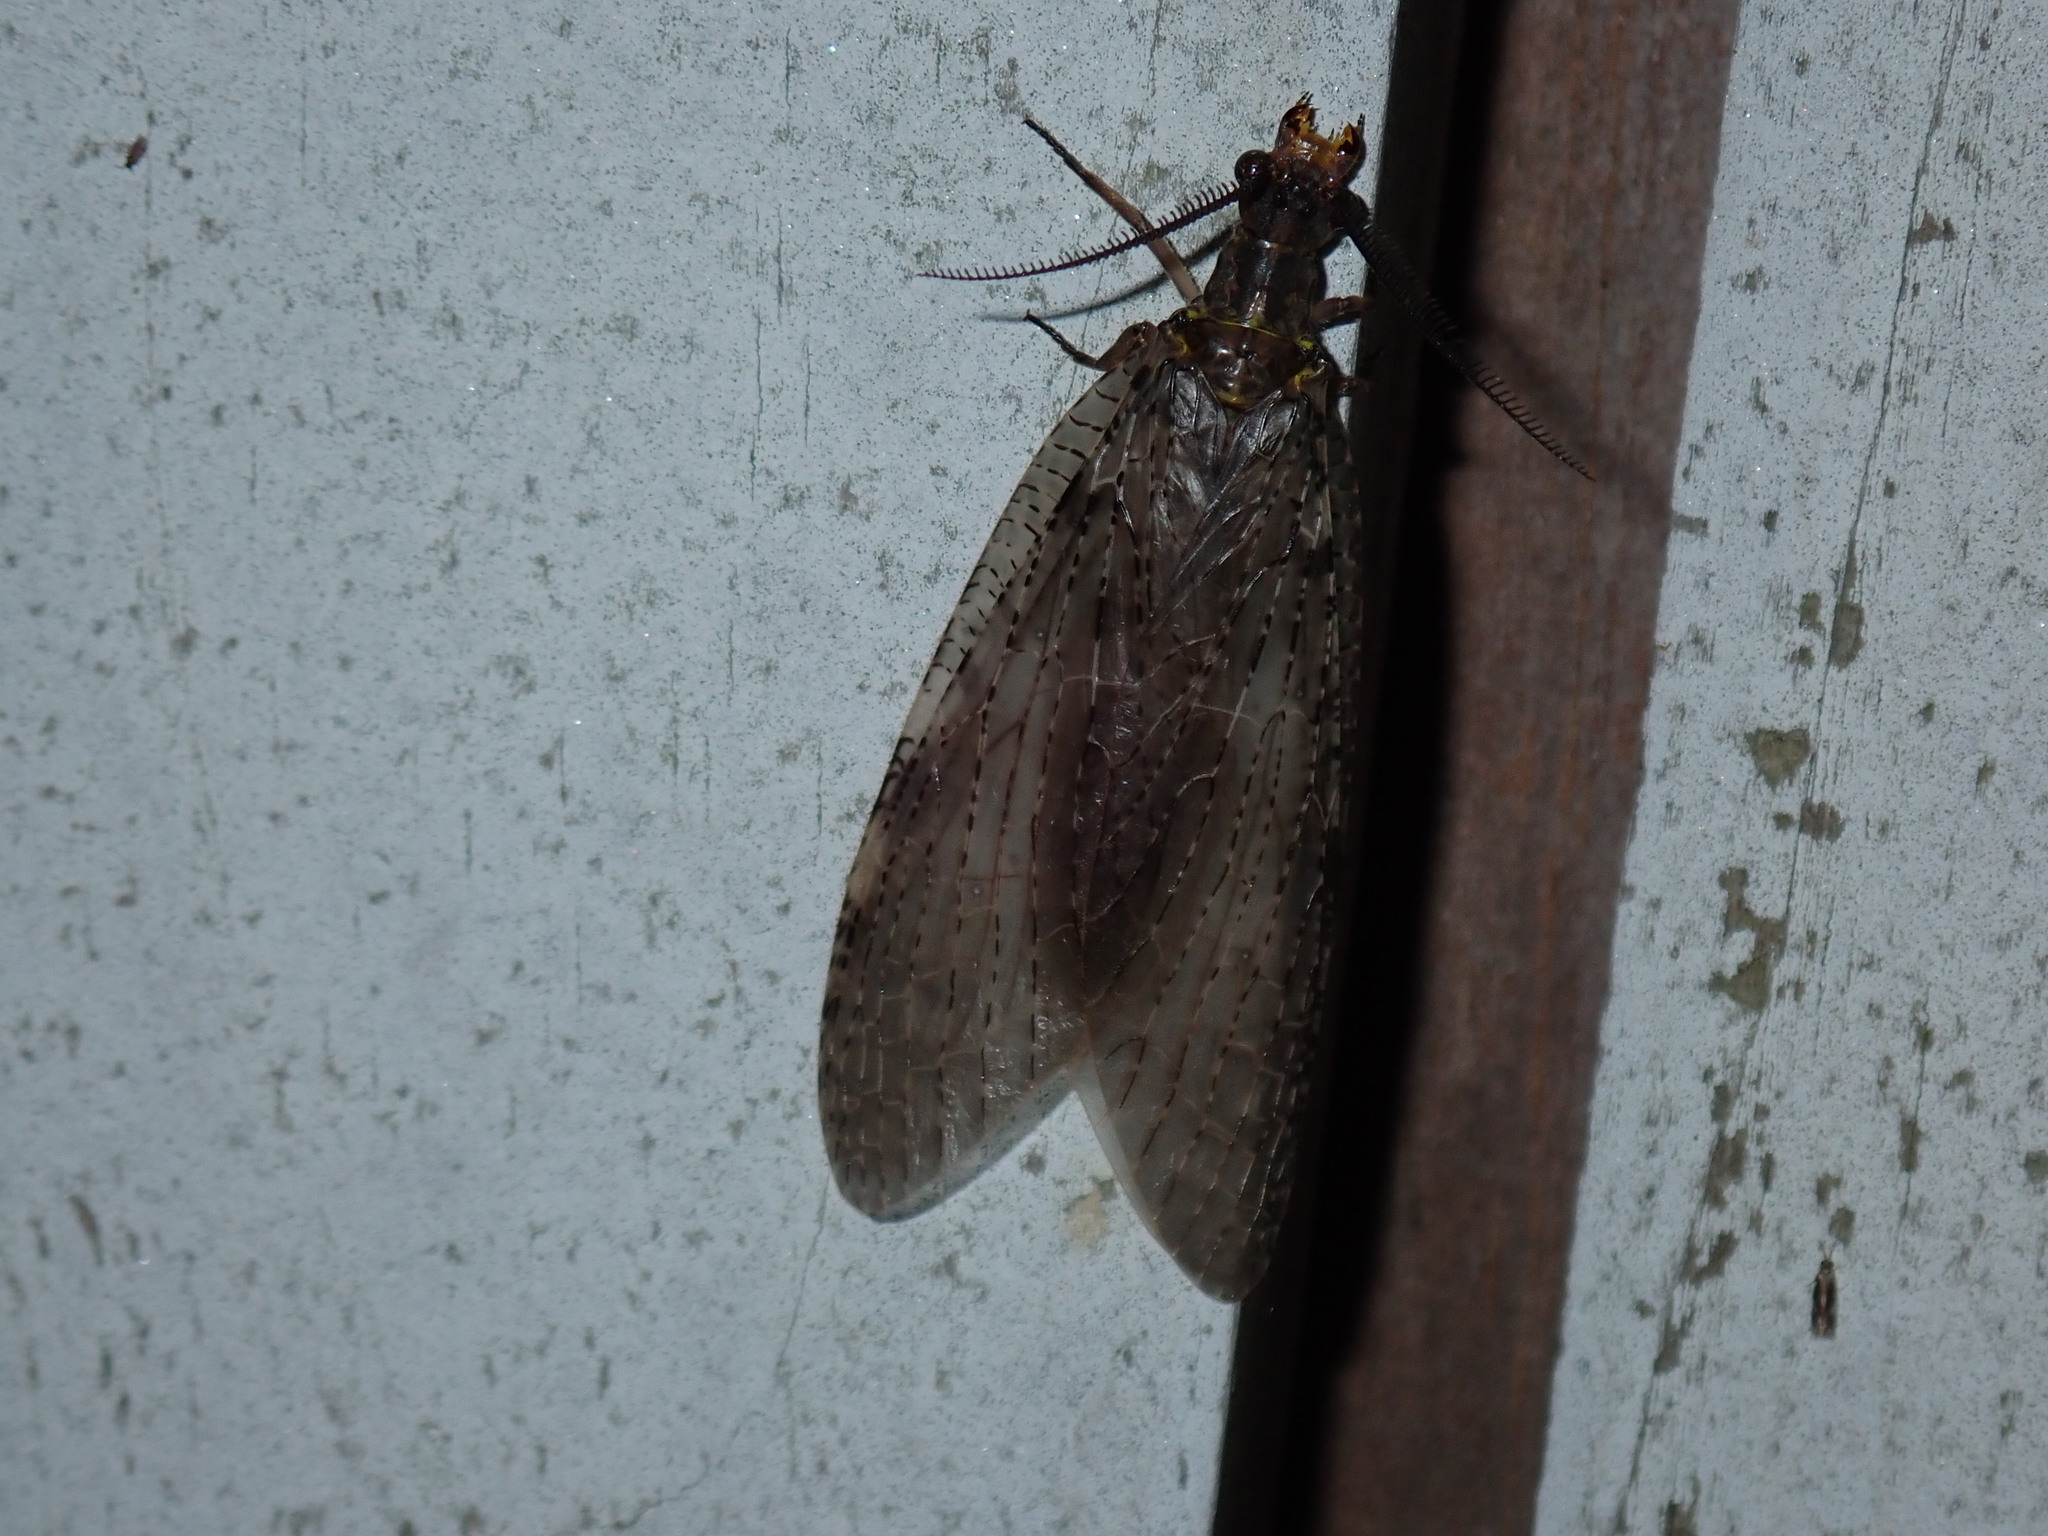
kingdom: Animalia
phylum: Arthropoda
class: Insecta
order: Megaloptera
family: Corydalidae
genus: Chauliodes
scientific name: Chauliodes pectinicornis
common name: Summer fishfly
